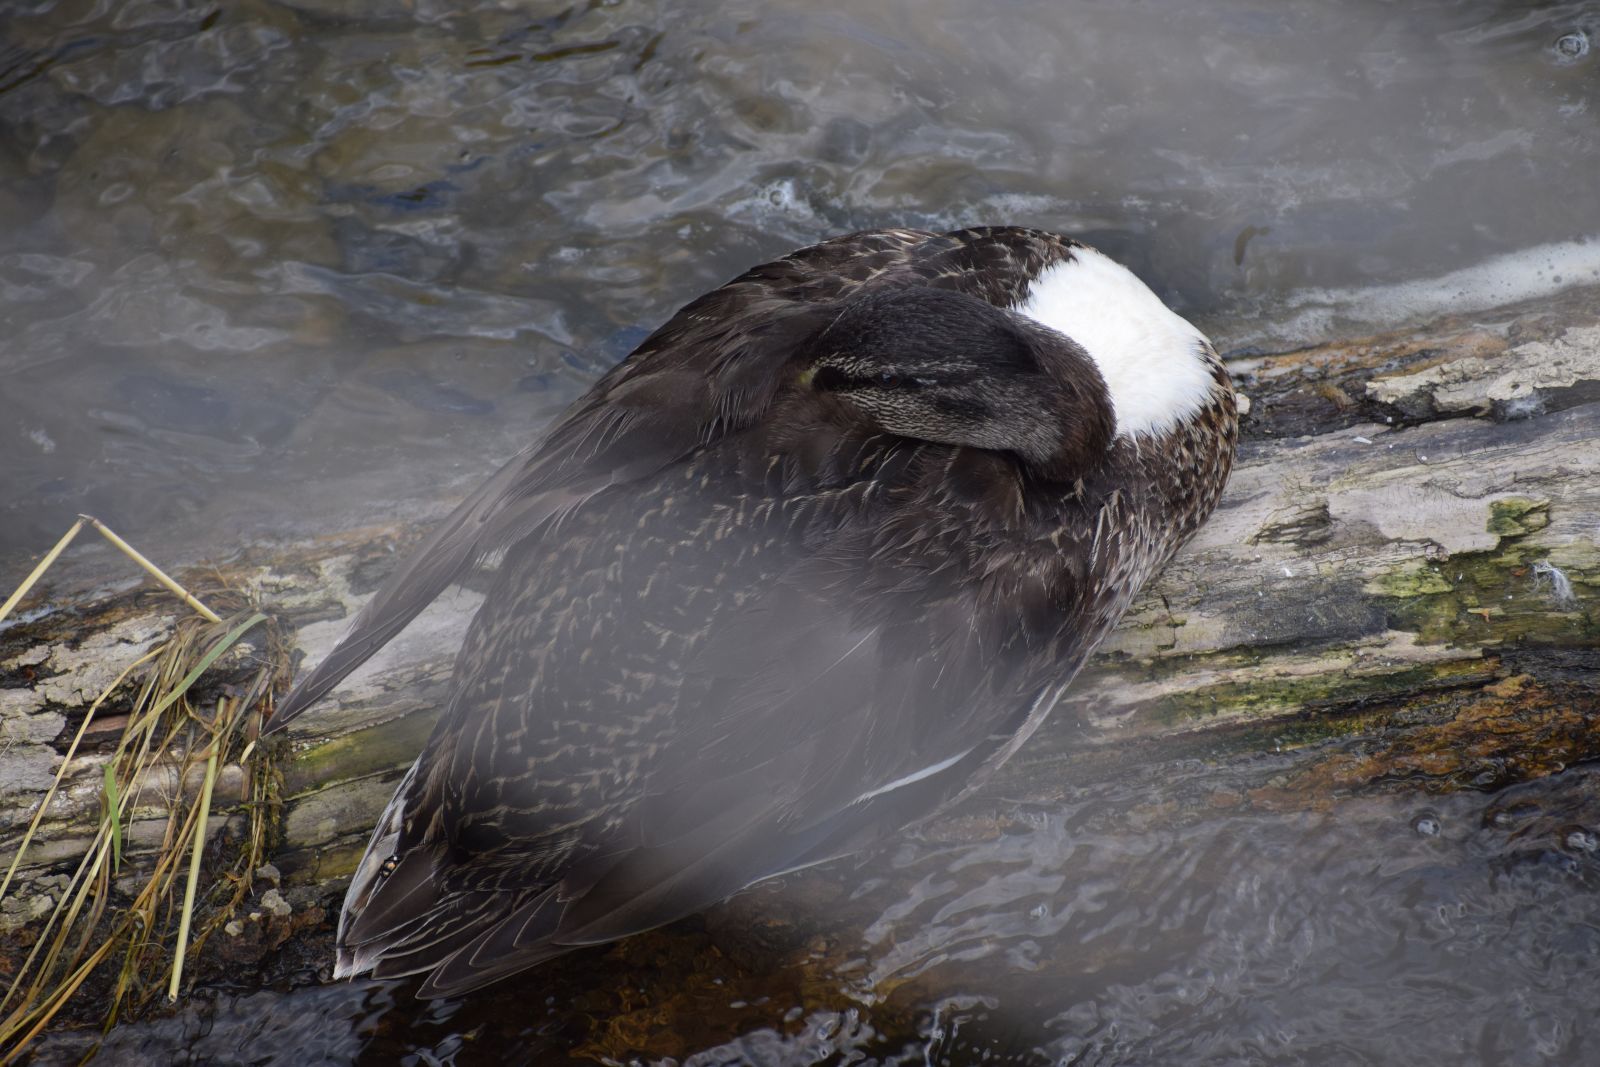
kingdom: Animalia
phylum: Chordata
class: Aves
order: Anseriformes
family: Anatidae
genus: Anas
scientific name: Anas platyrhynchos
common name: Mallard
